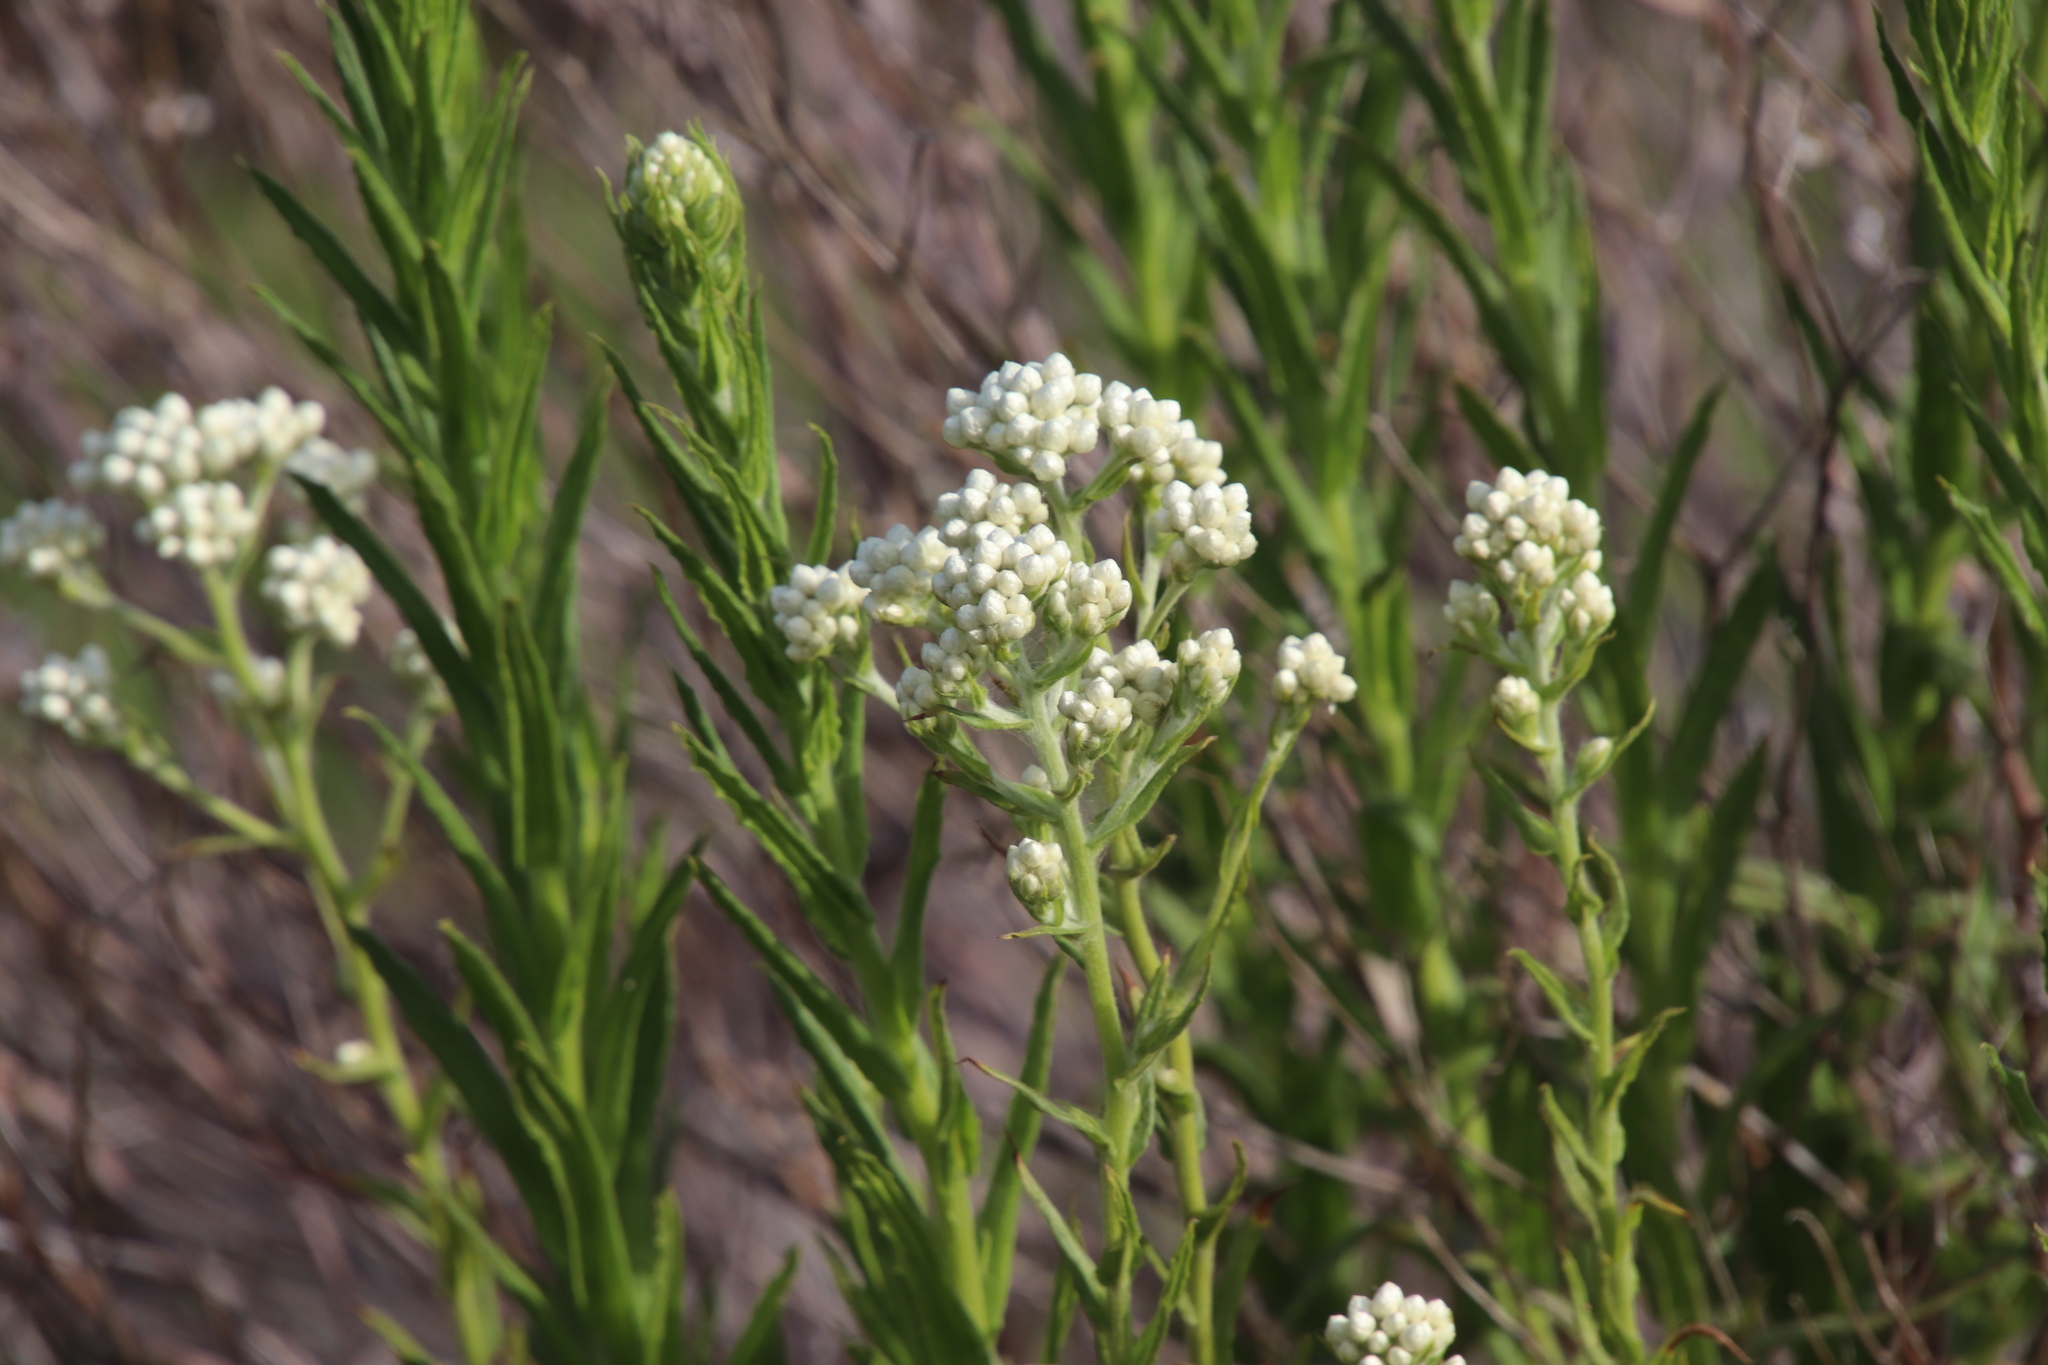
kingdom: Plantae
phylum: Tracheophyta
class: Magnoliopsida
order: Asterales
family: Asteraceae
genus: Pseudognaphalium
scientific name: Pseudognaphalium californicum
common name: California rabbit-tobacco
